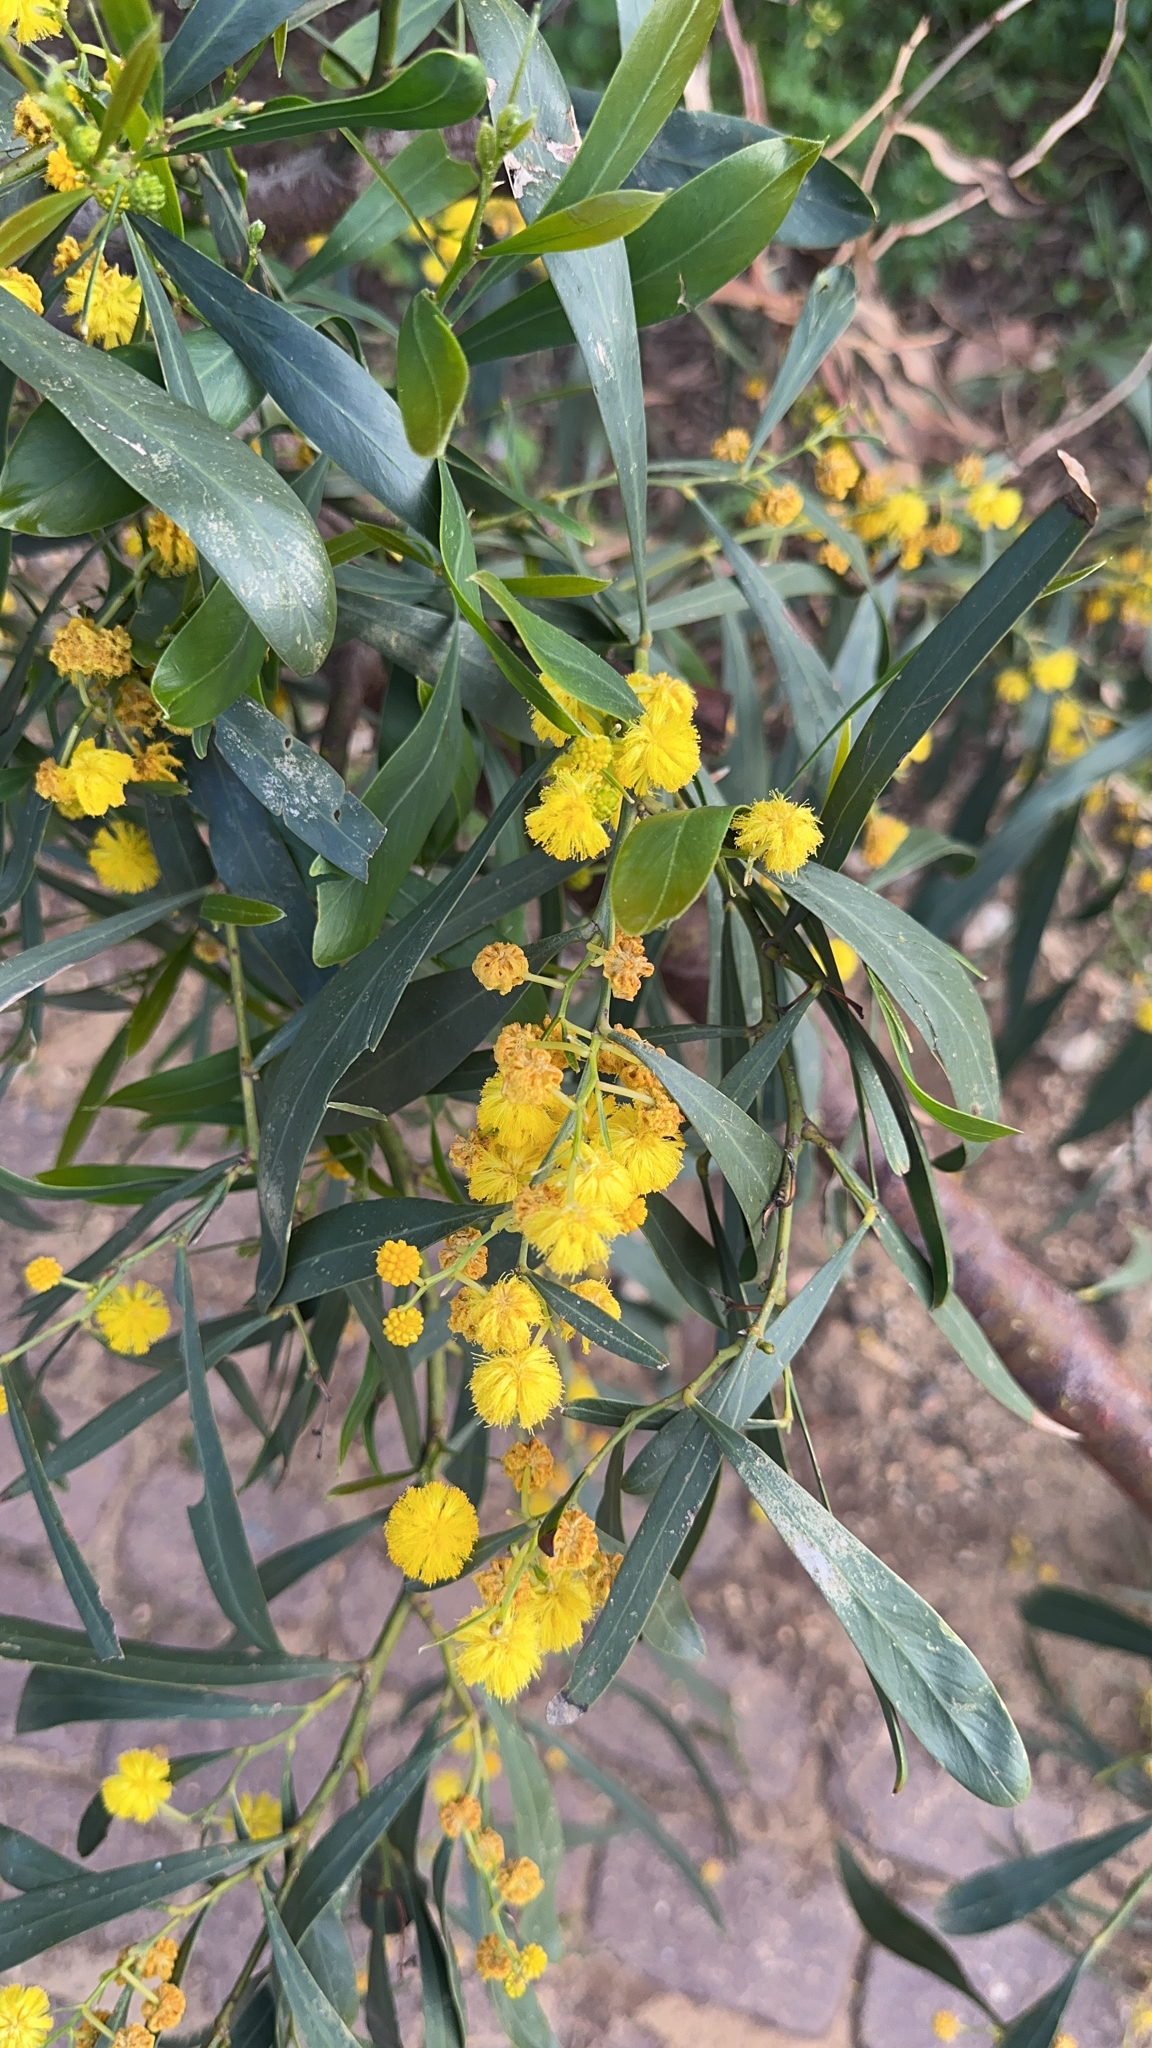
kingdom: Plantae
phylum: Tracheophyta
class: Magnoliopsida
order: Fabales
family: Fabaceae
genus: Acacia
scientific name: Acacia saligna
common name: Orange wattle
